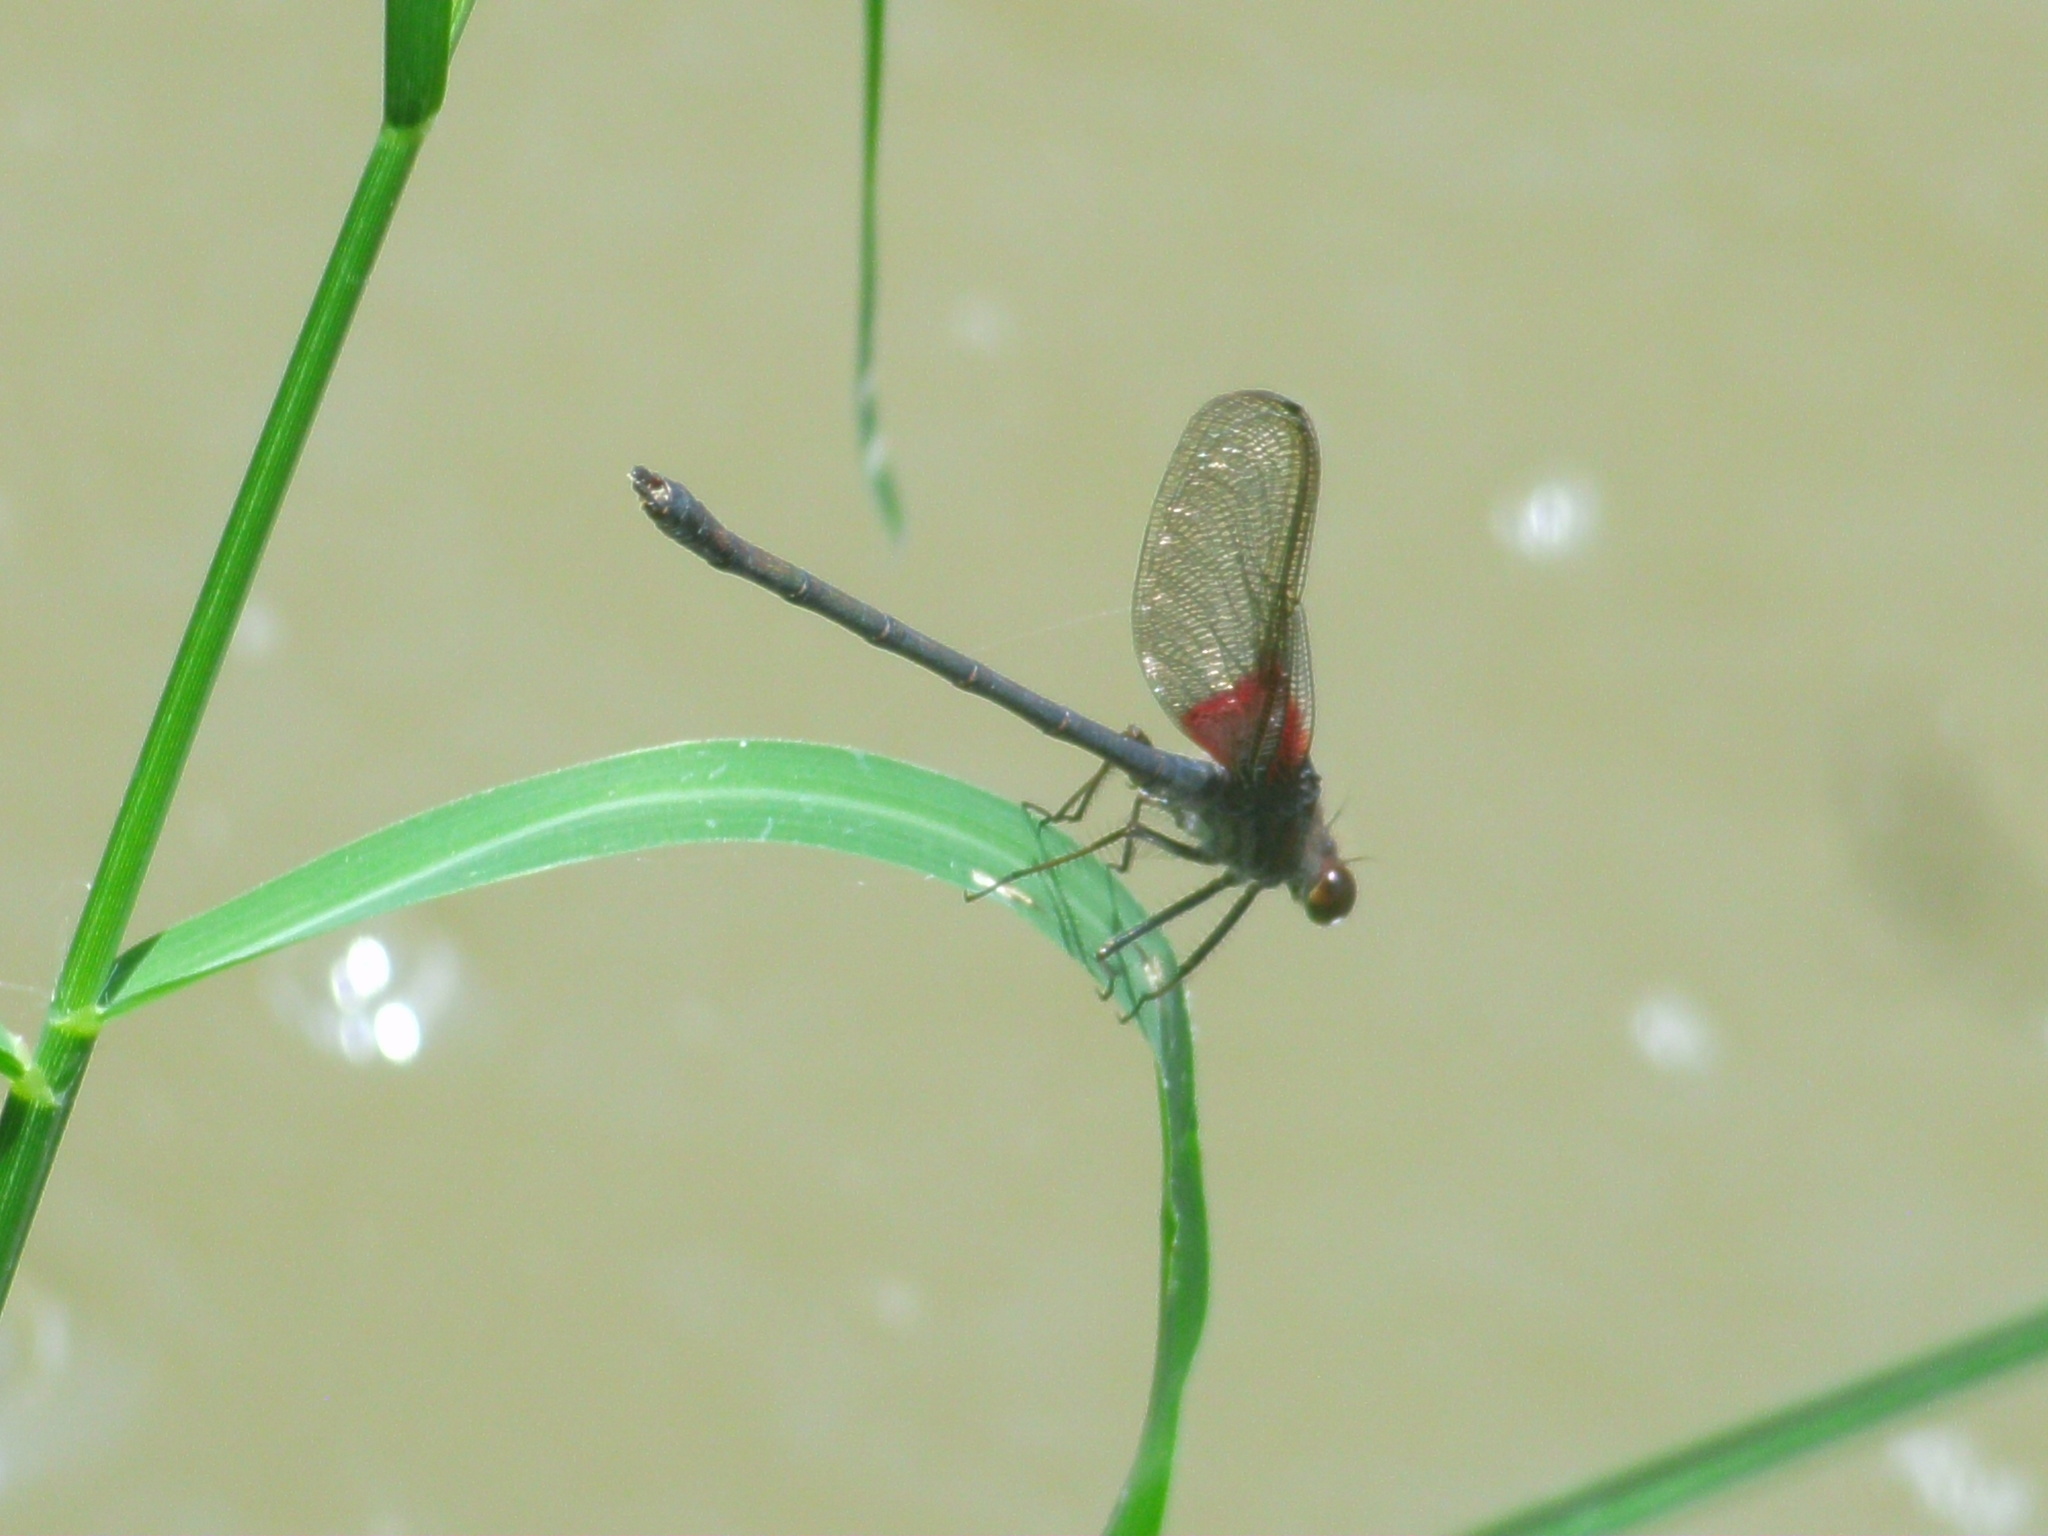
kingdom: Animalia
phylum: Arthropoda
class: Insecta
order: Odonata
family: Calopterygidae
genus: Hetaerina
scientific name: Hetaerina americana
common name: American rubyspot
